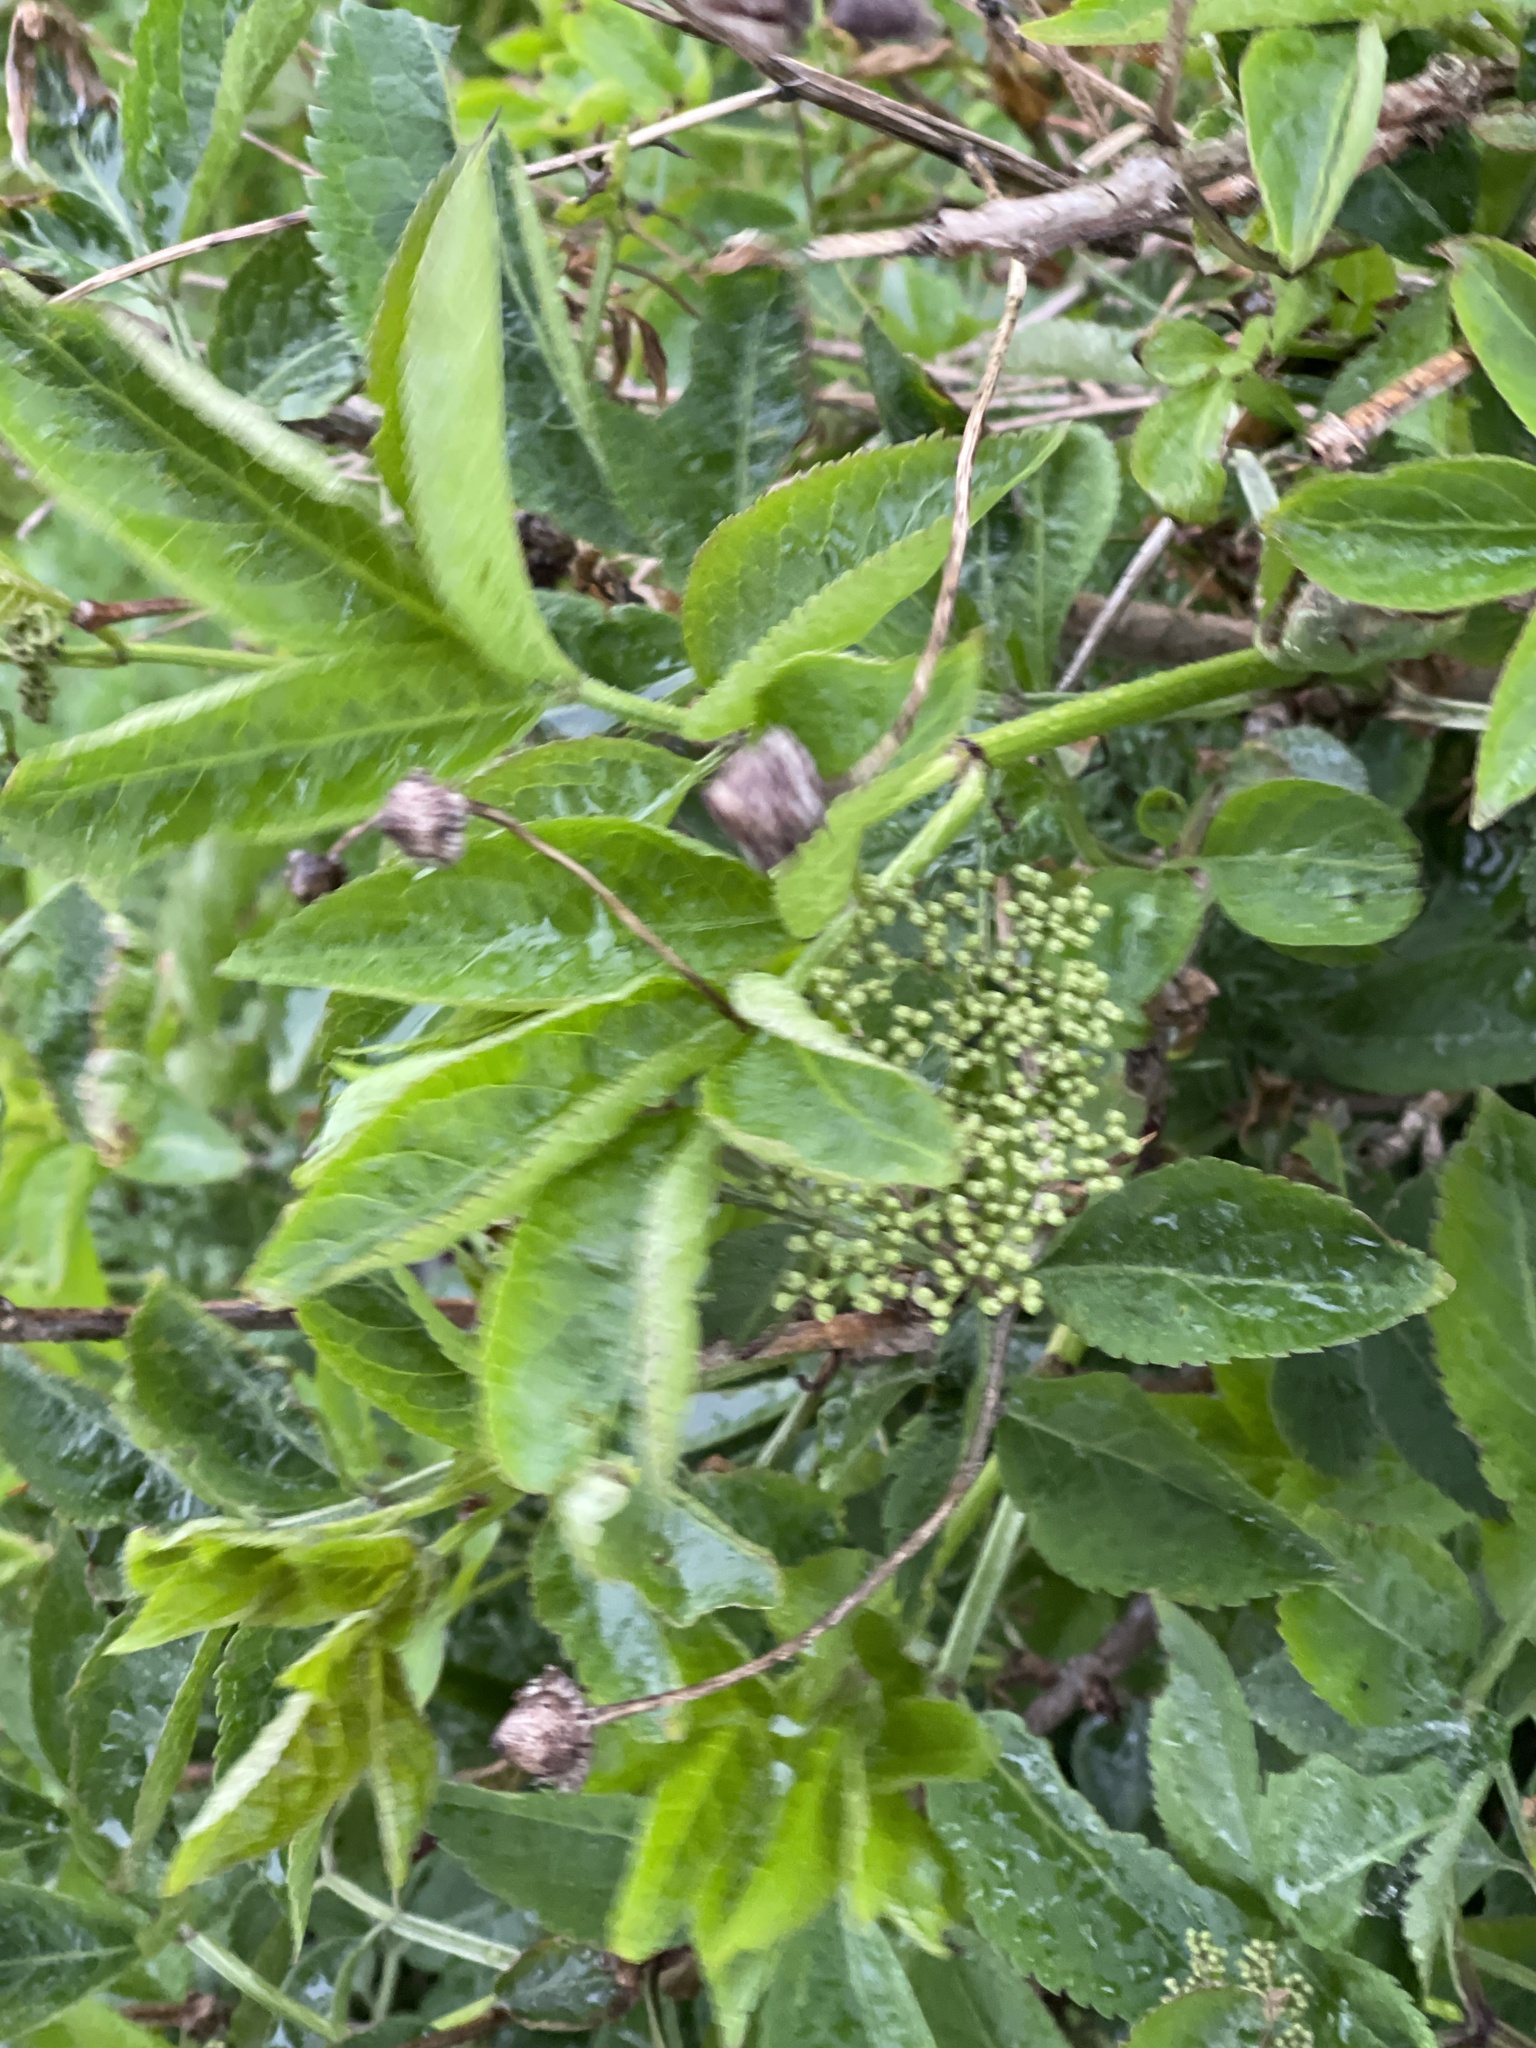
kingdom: Plantae
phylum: Tracheophyta
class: Magnoliopsida
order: Dipsacales
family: Viburnaceae
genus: Sambucus
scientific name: Sambucus nigra
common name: Elder
